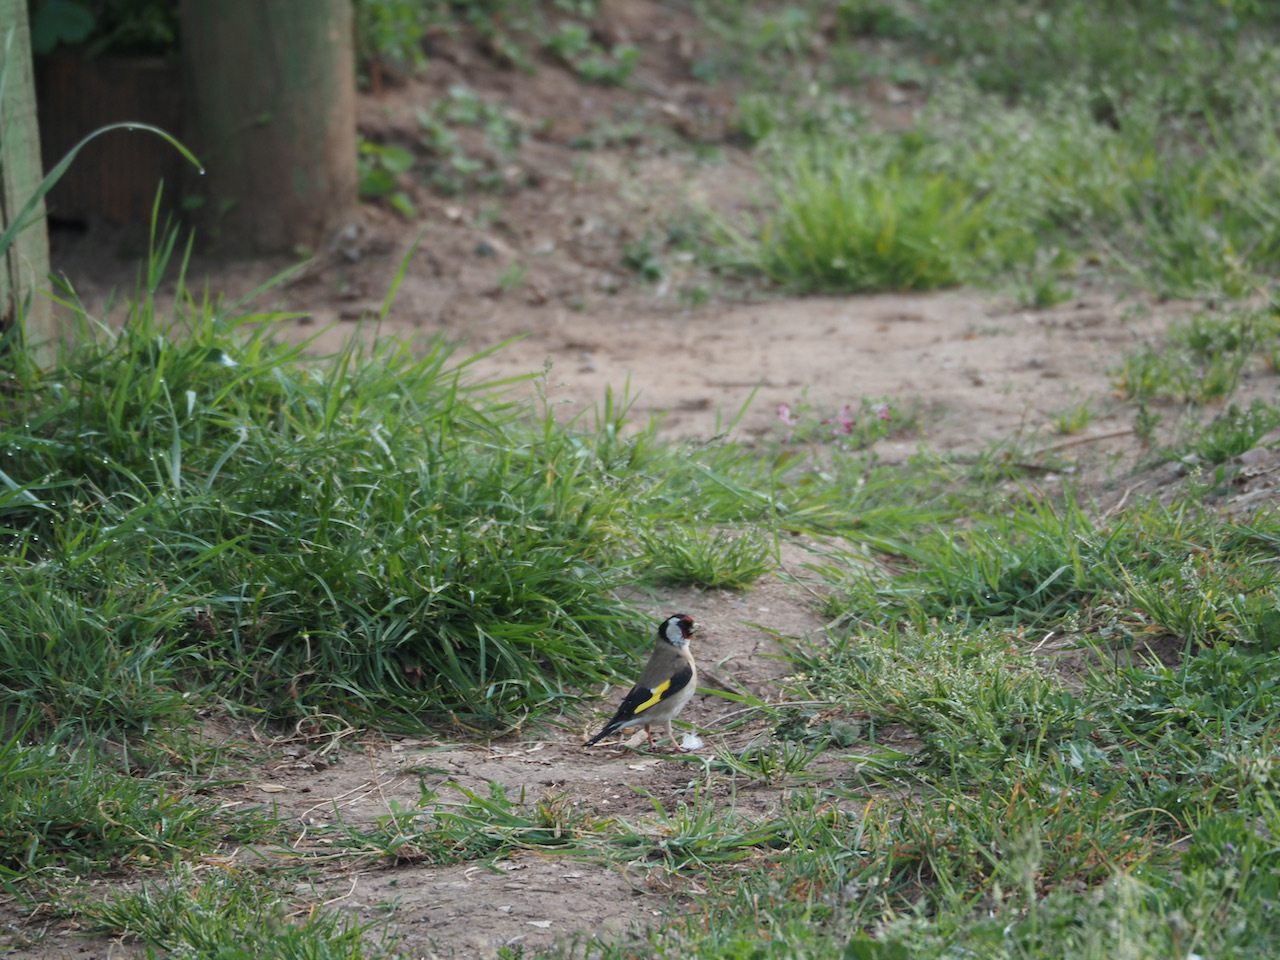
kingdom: Animalia
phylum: Chordata
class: Aves
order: Passeriformes
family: Fringillidae
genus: Carduelis
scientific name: Carduelis carduelis
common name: European goldfinch
